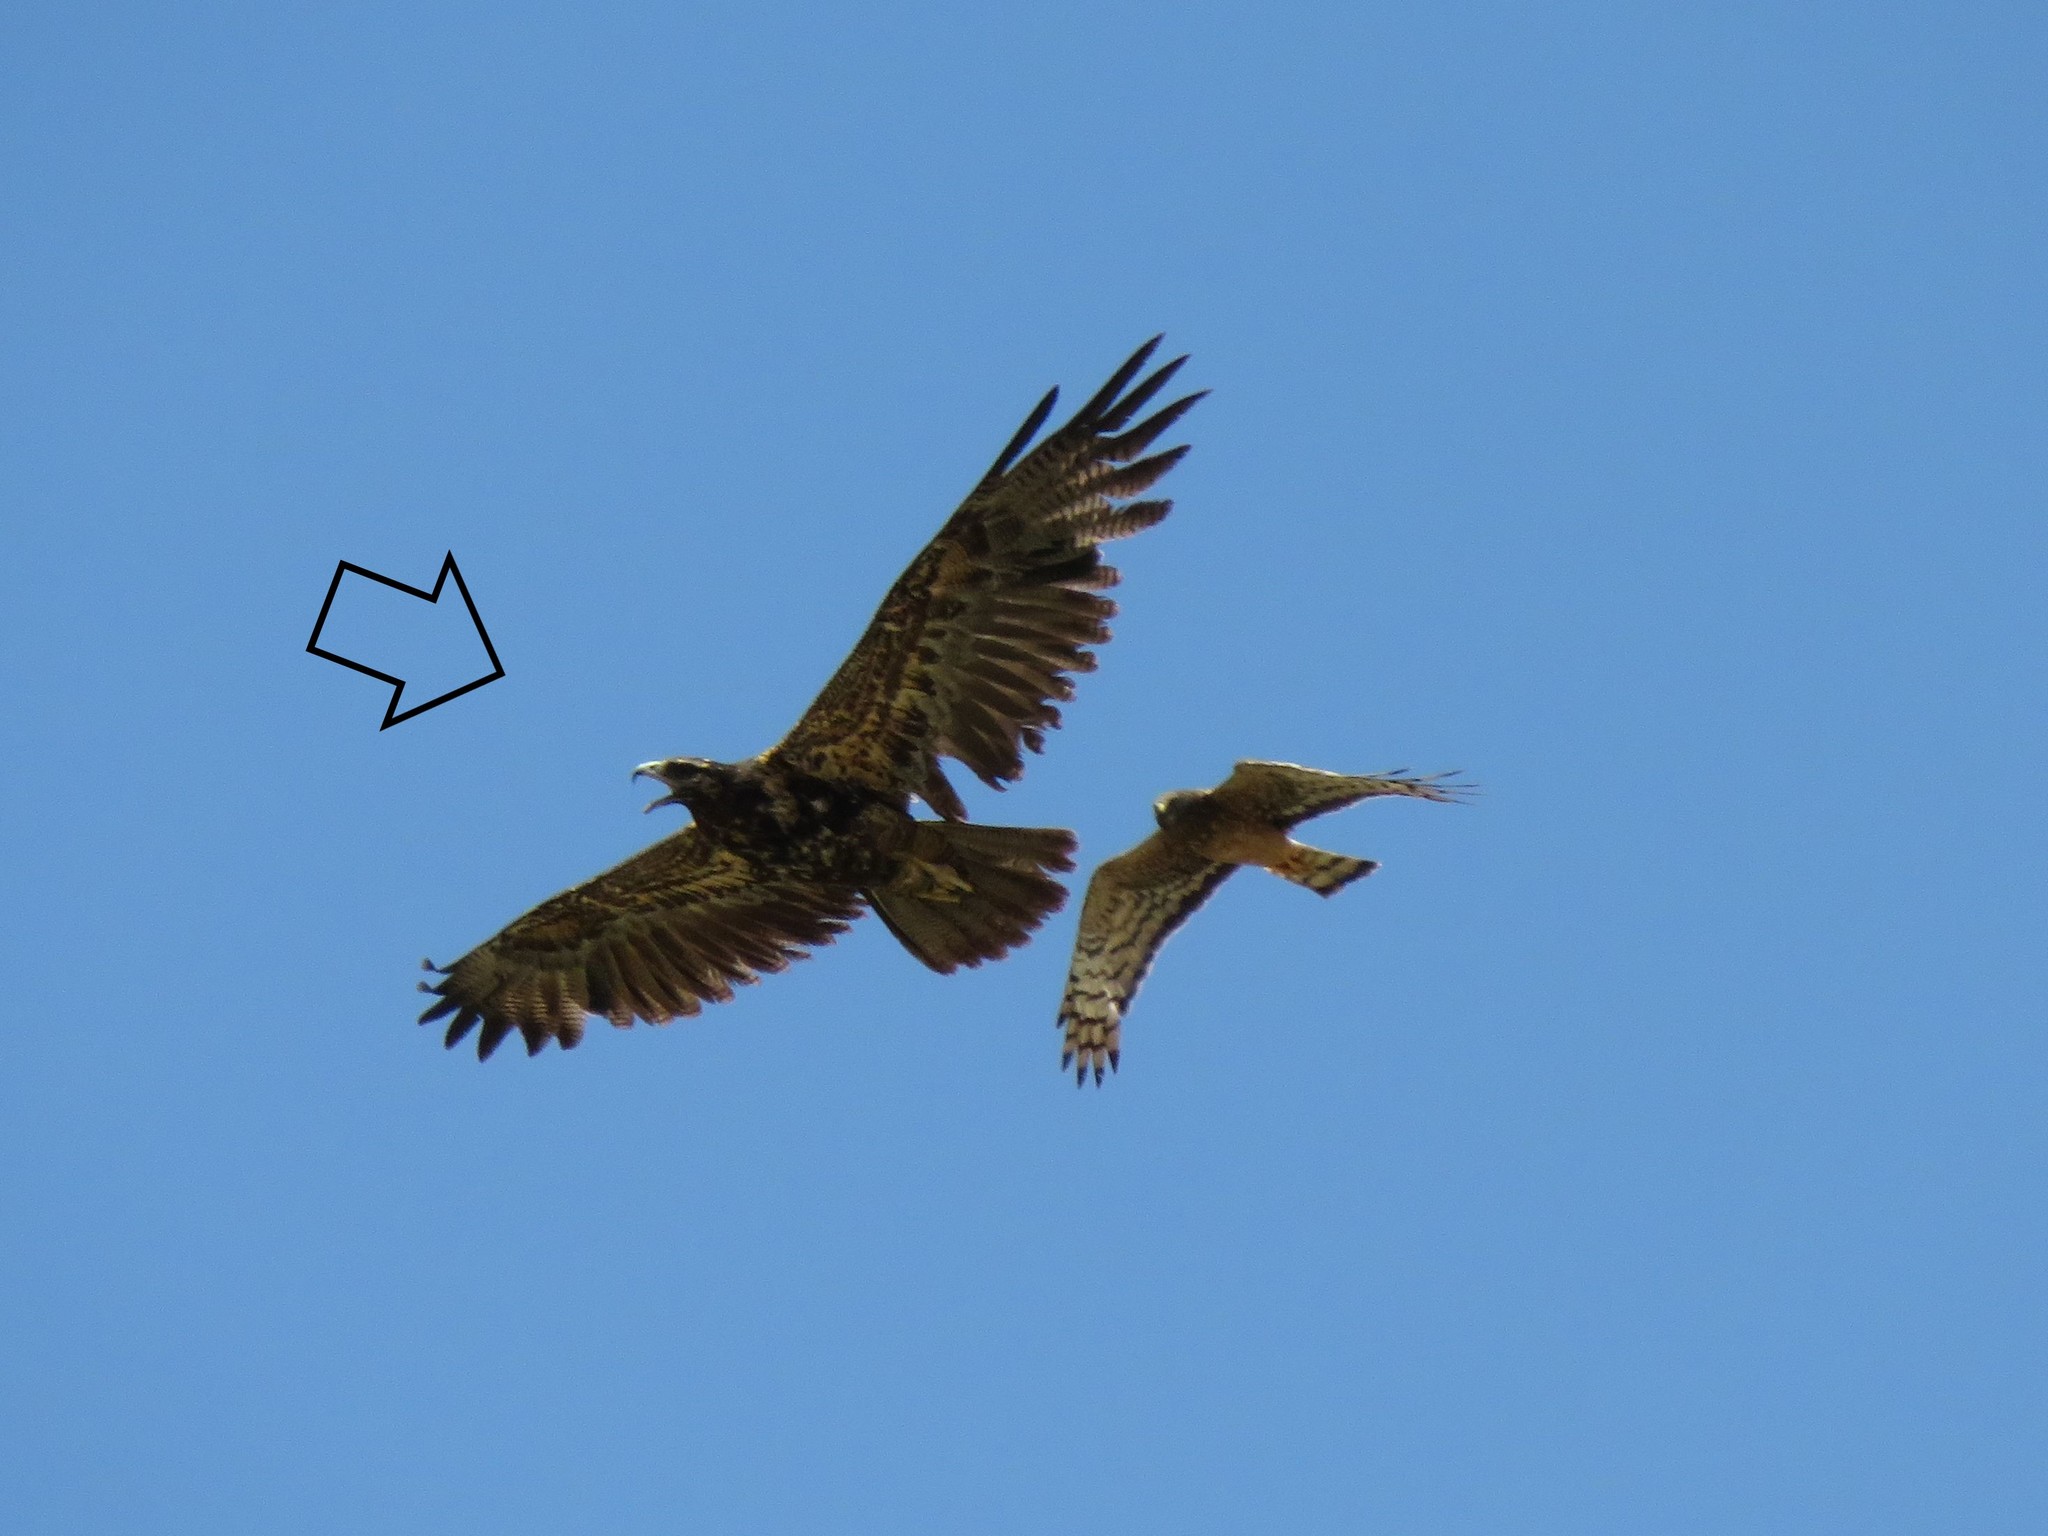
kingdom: Animalia
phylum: Chordata
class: Aves
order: Accipitriformes
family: Accipitridae
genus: Geranoaetus
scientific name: Geranoaetus melanoleucus
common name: Black-chested buzzard-eagle
